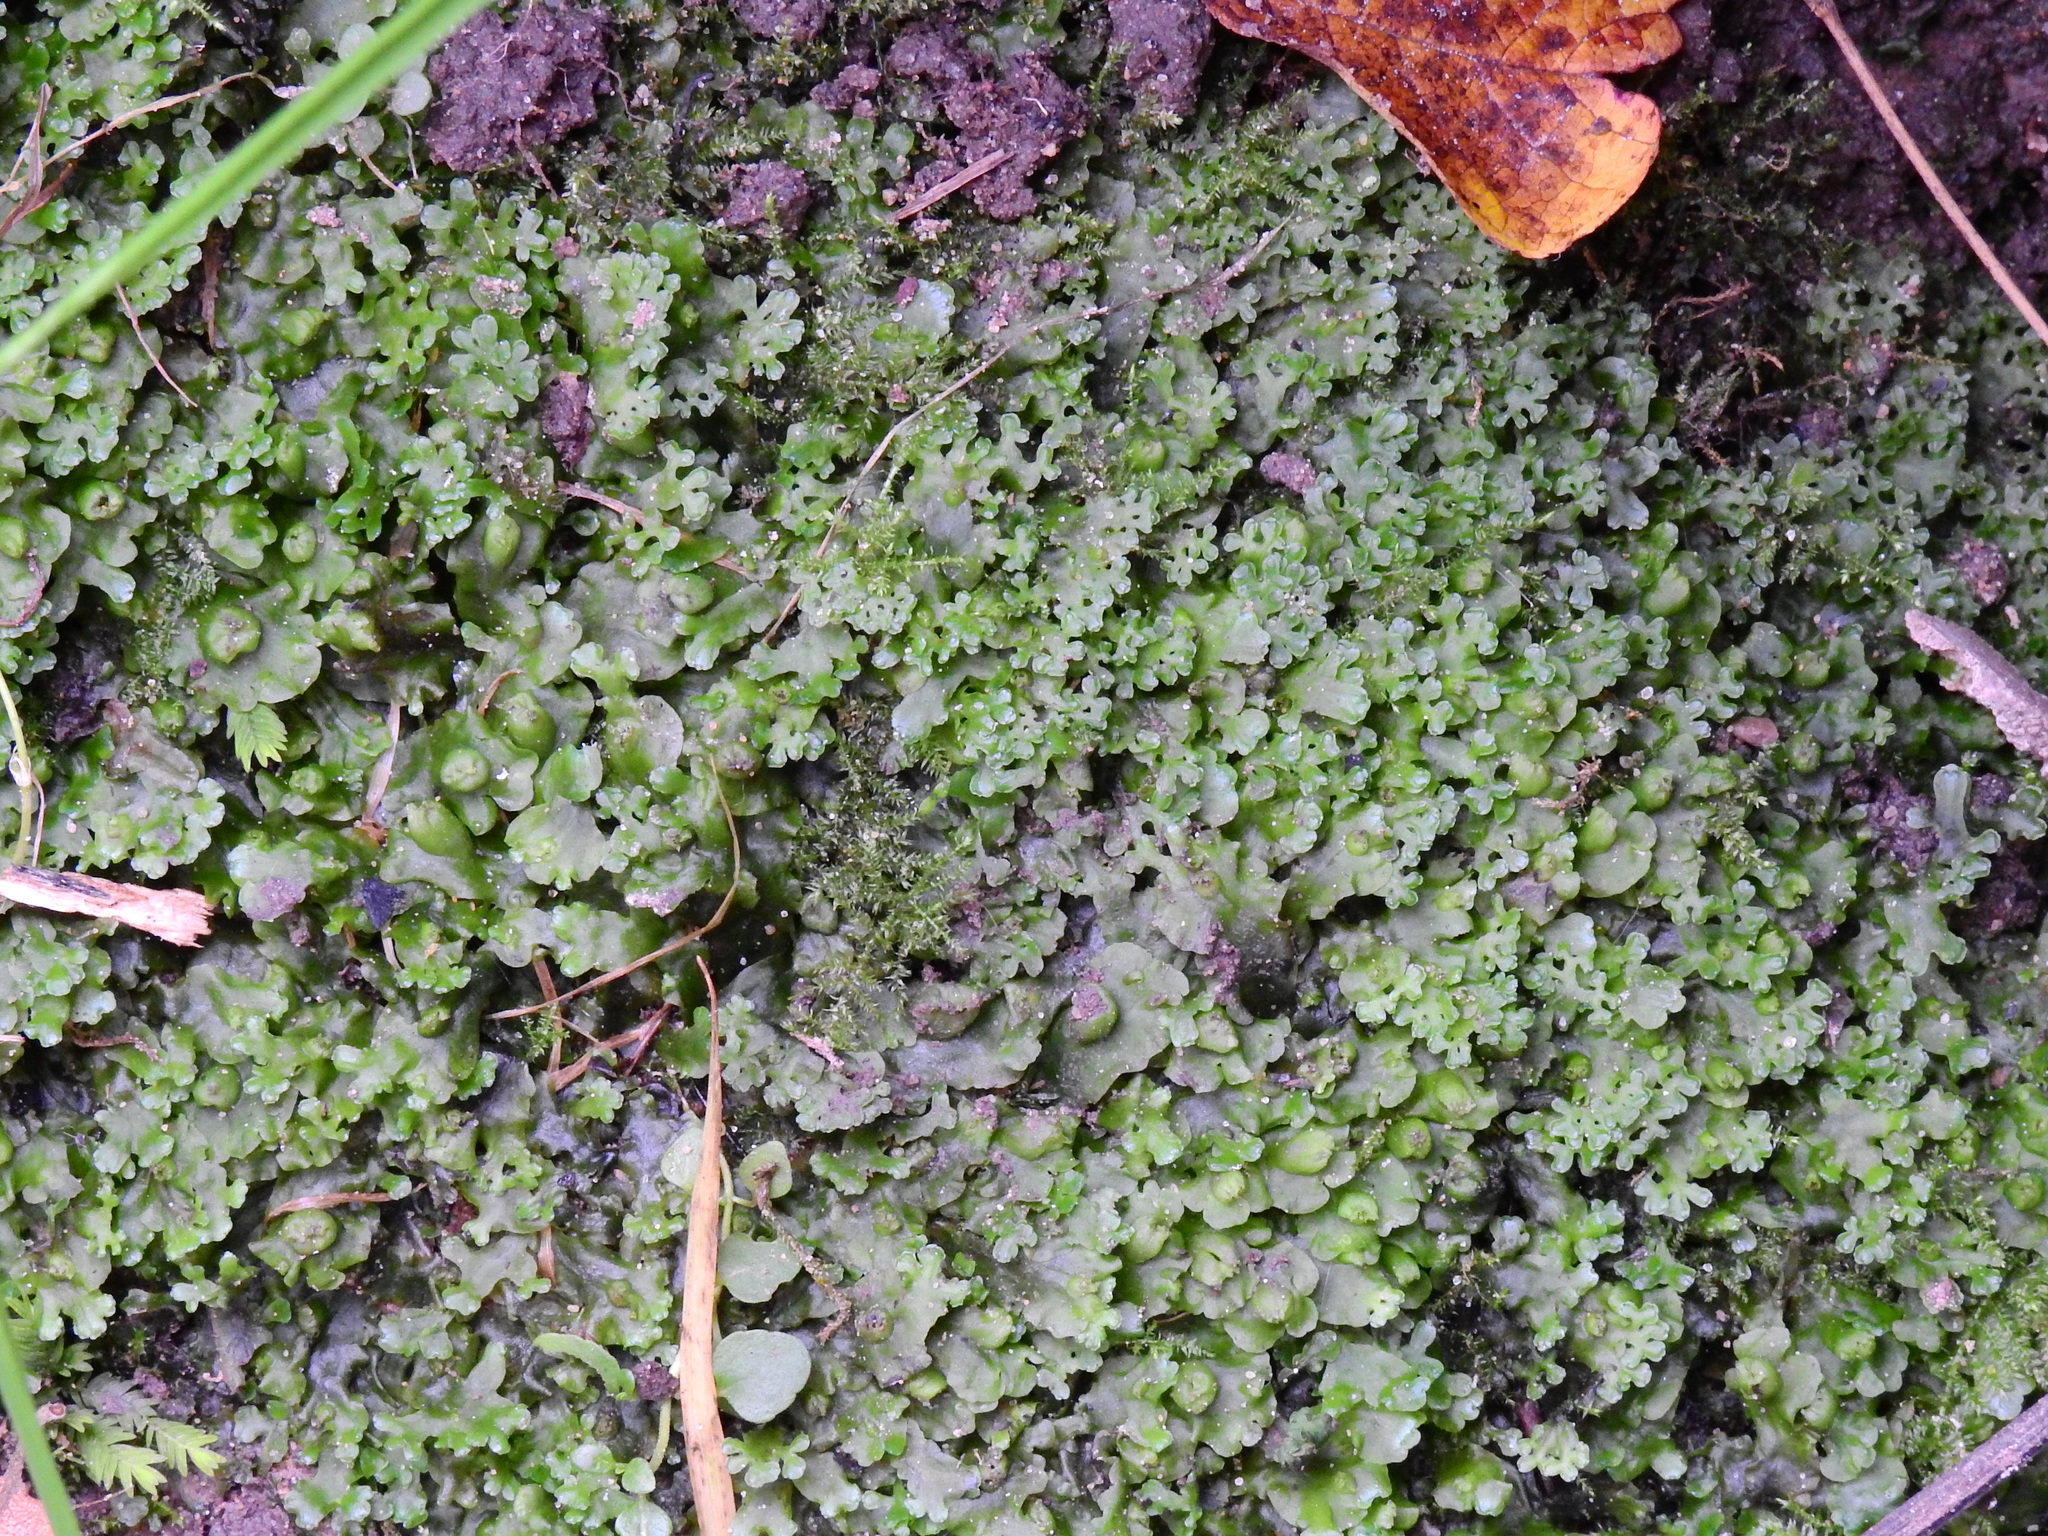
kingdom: Plantae
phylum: Marchantiophyta
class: Jungermanniopsida
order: Pelliales
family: Pelliaceae
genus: Apopellia
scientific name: Apopellia endiviifolia
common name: Endive pellia
